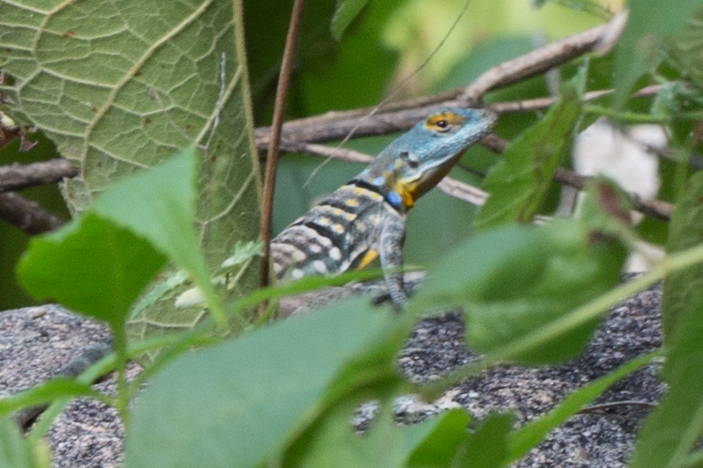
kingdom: Animalia
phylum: Chordata
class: Squamata
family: Phrynosomatidae
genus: Petrosaurus
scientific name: Petrosaurus thalassinus
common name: Baja california rock lizard
